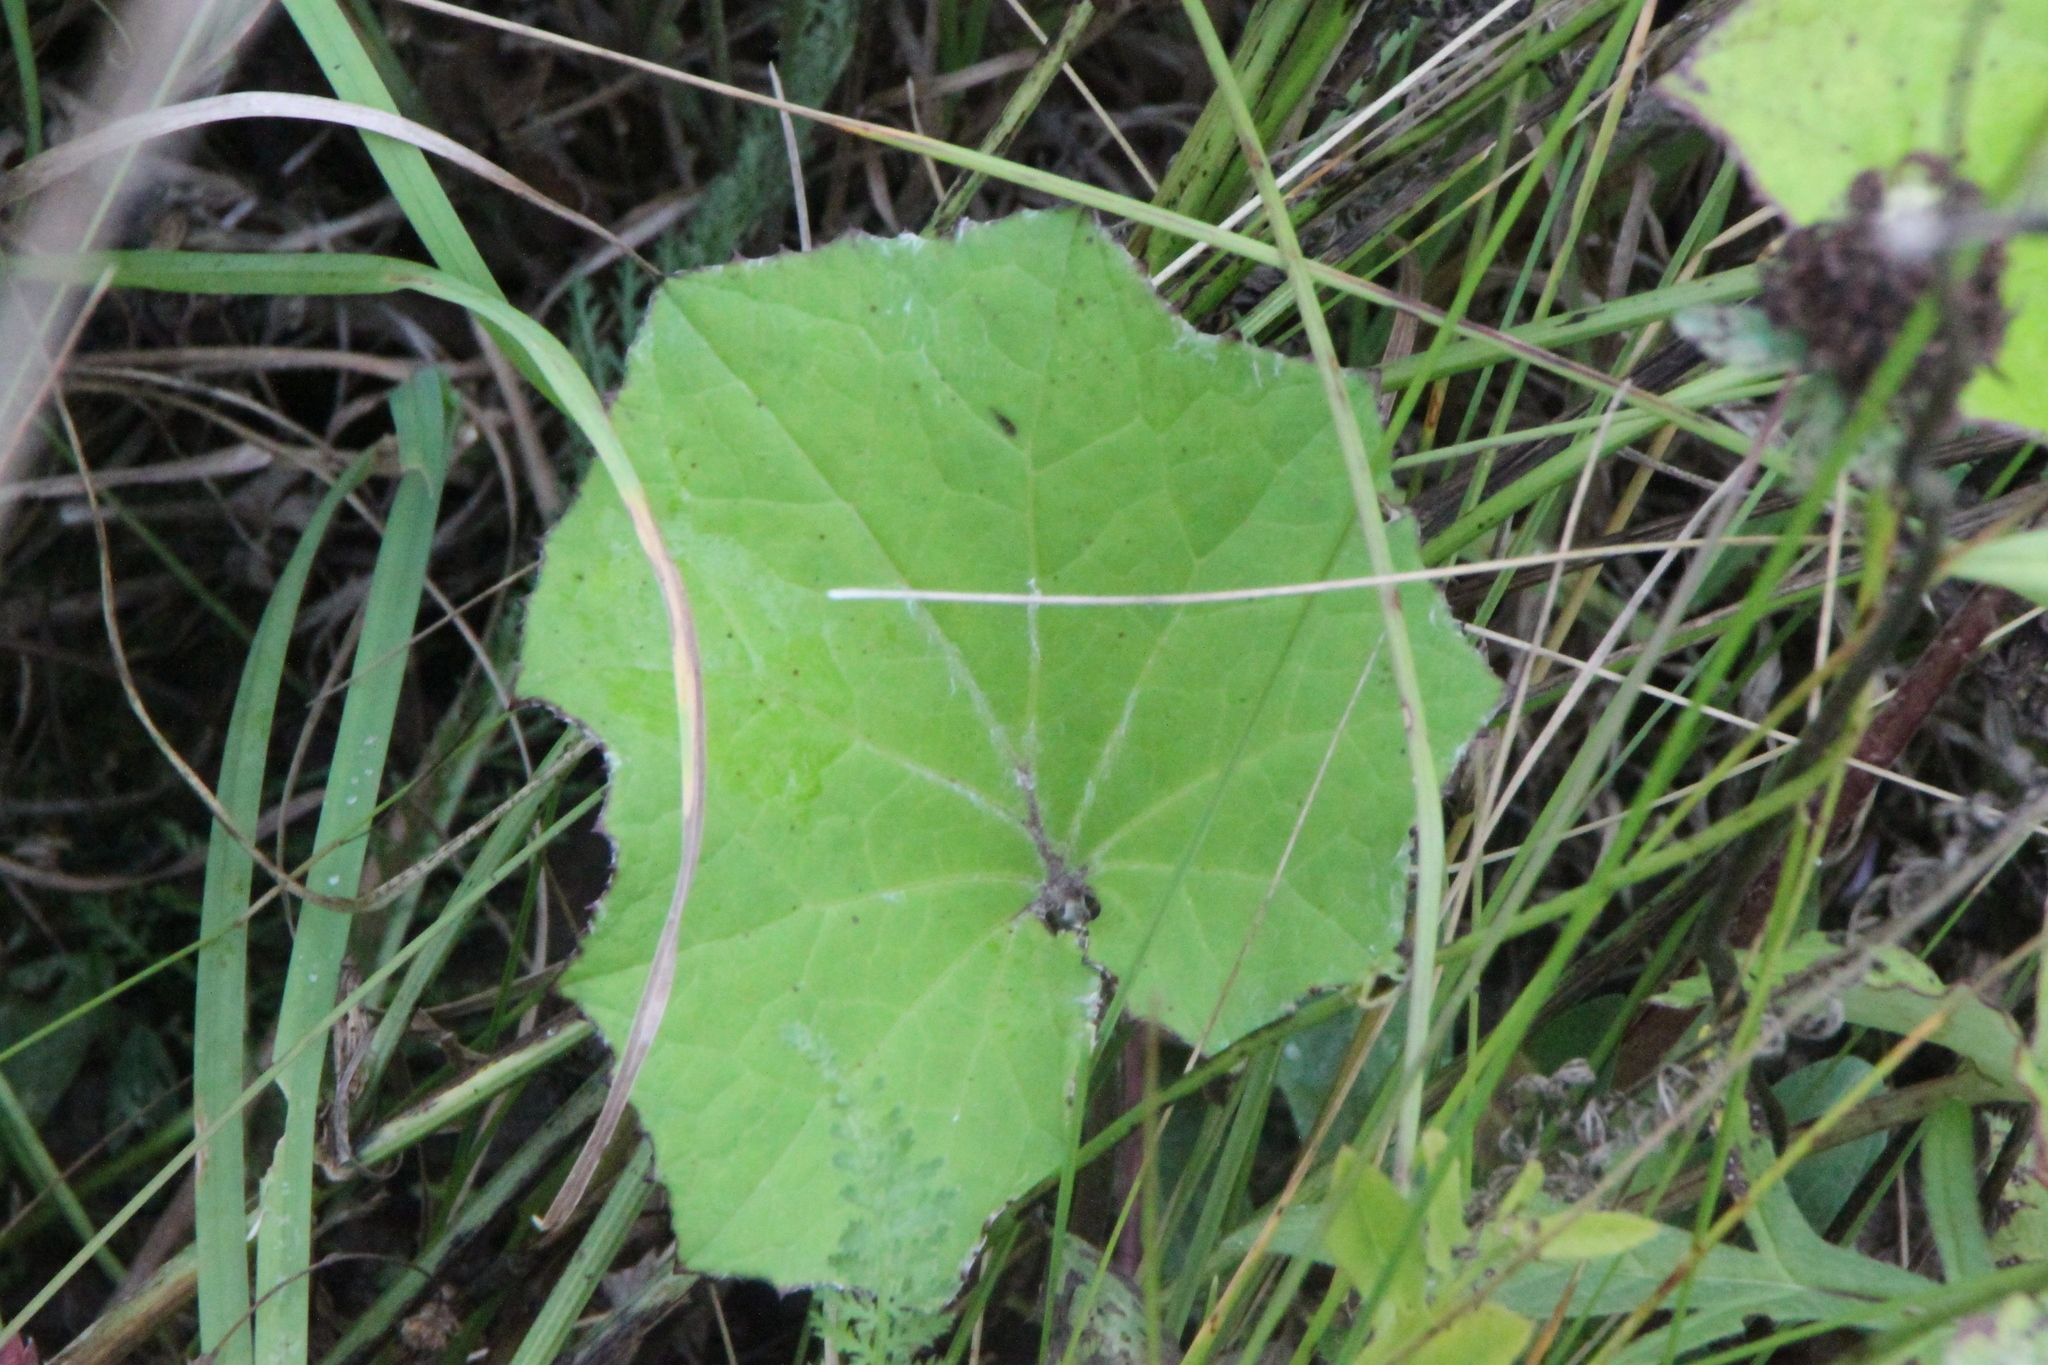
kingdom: Plantae
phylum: Tracheophyta
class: Magnoliopsida
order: Asterales
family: Asteraceae
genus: Tussilago
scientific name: Tussilago farfara
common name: Coltsfoot
